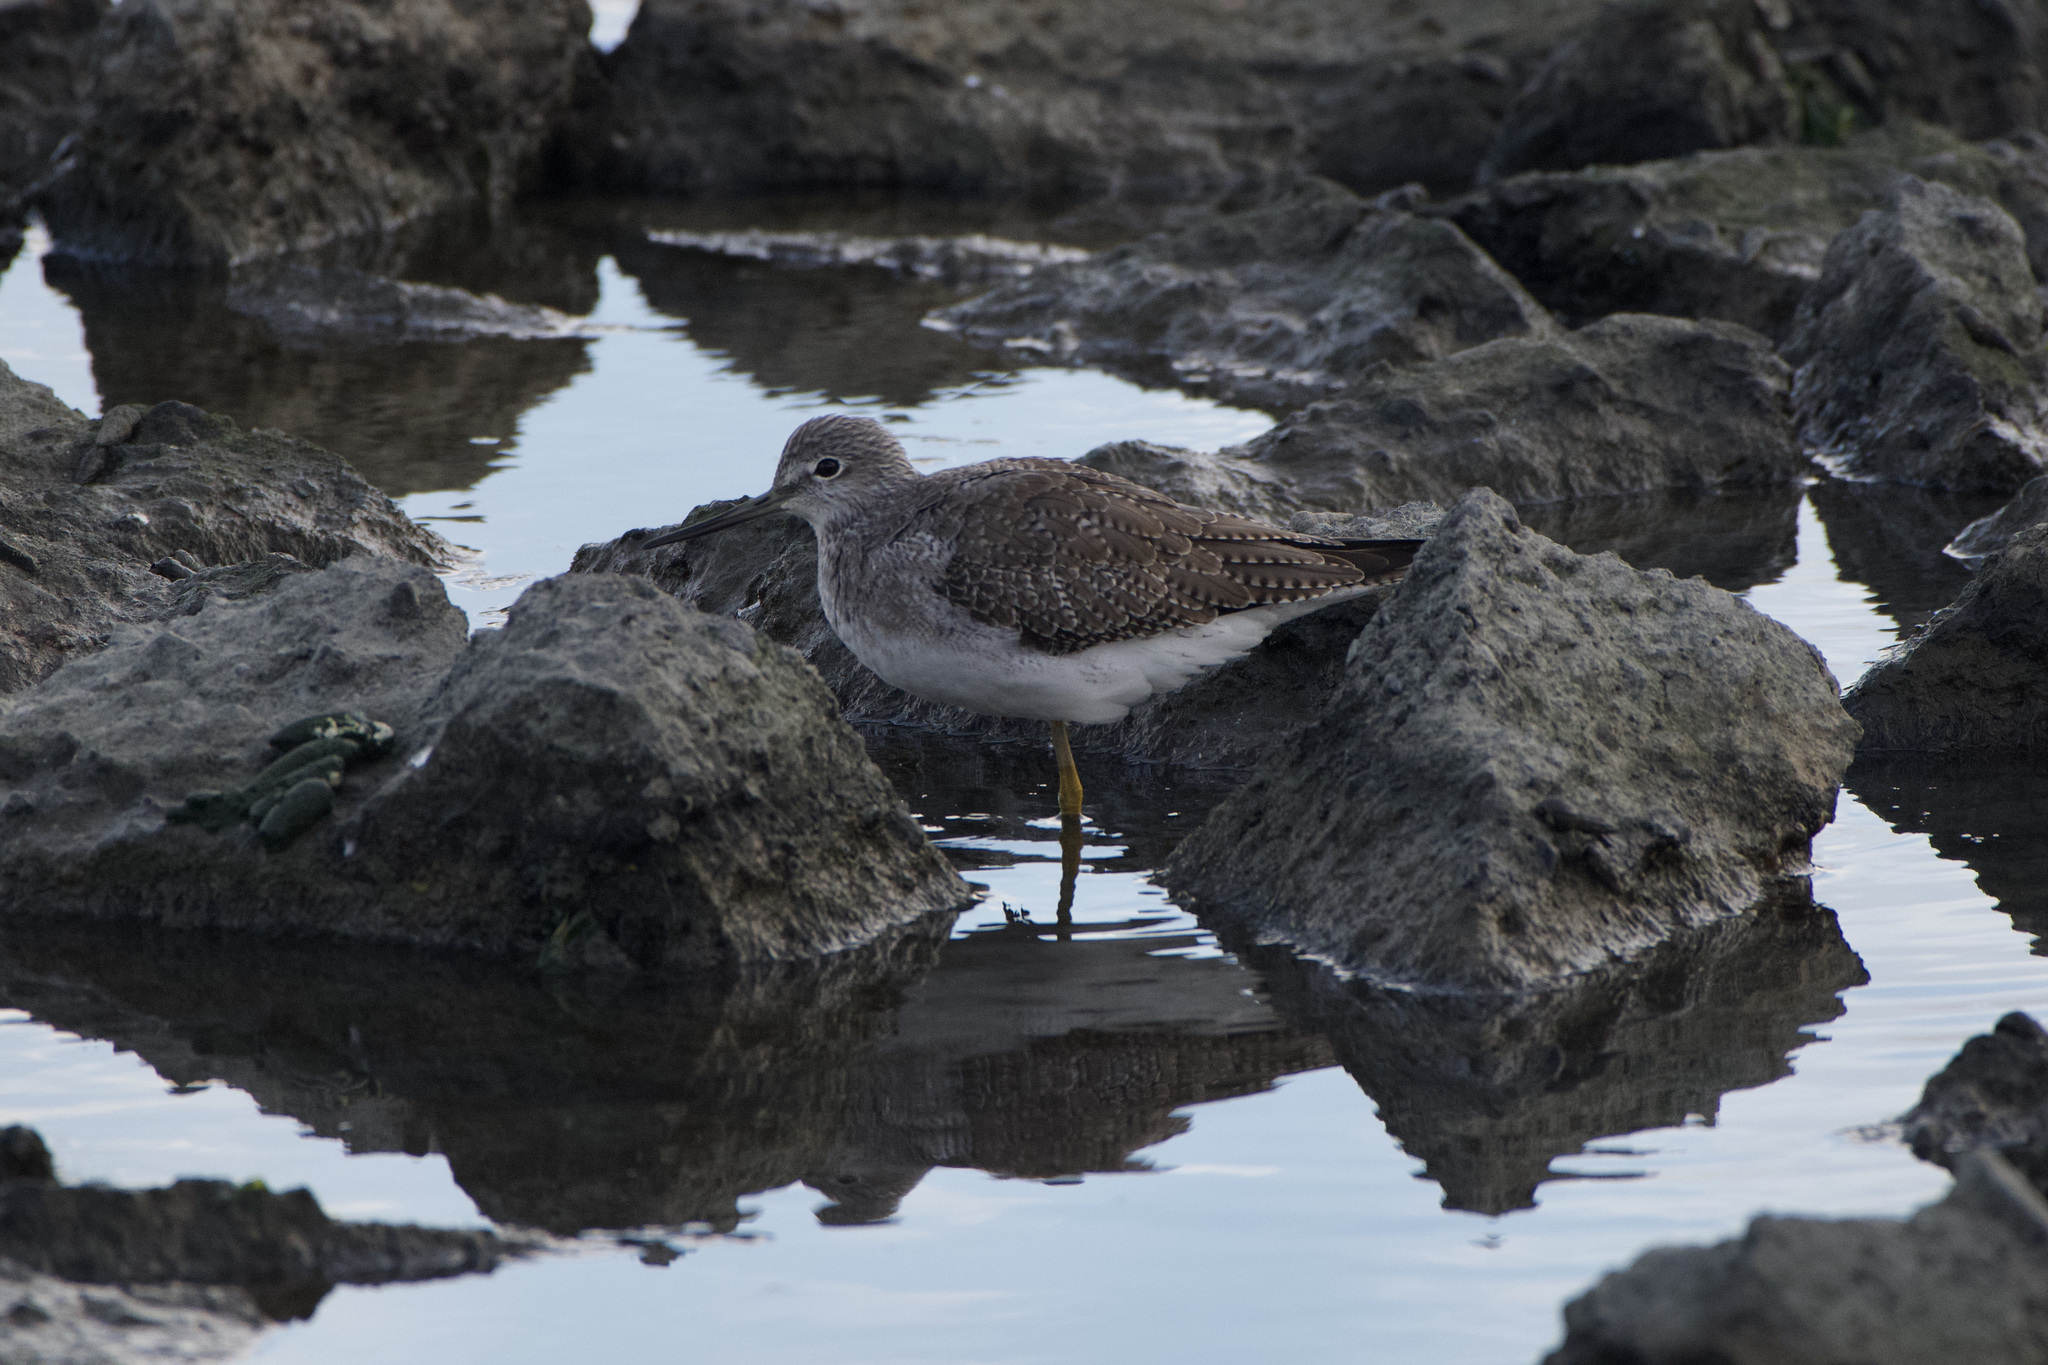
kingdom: Animalia
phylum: Chordata
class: Aves
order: Charadriiformes
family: Scolopacidae
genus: Tringa
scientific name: Tringa melanoleuca
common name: Greater yellowlegs
